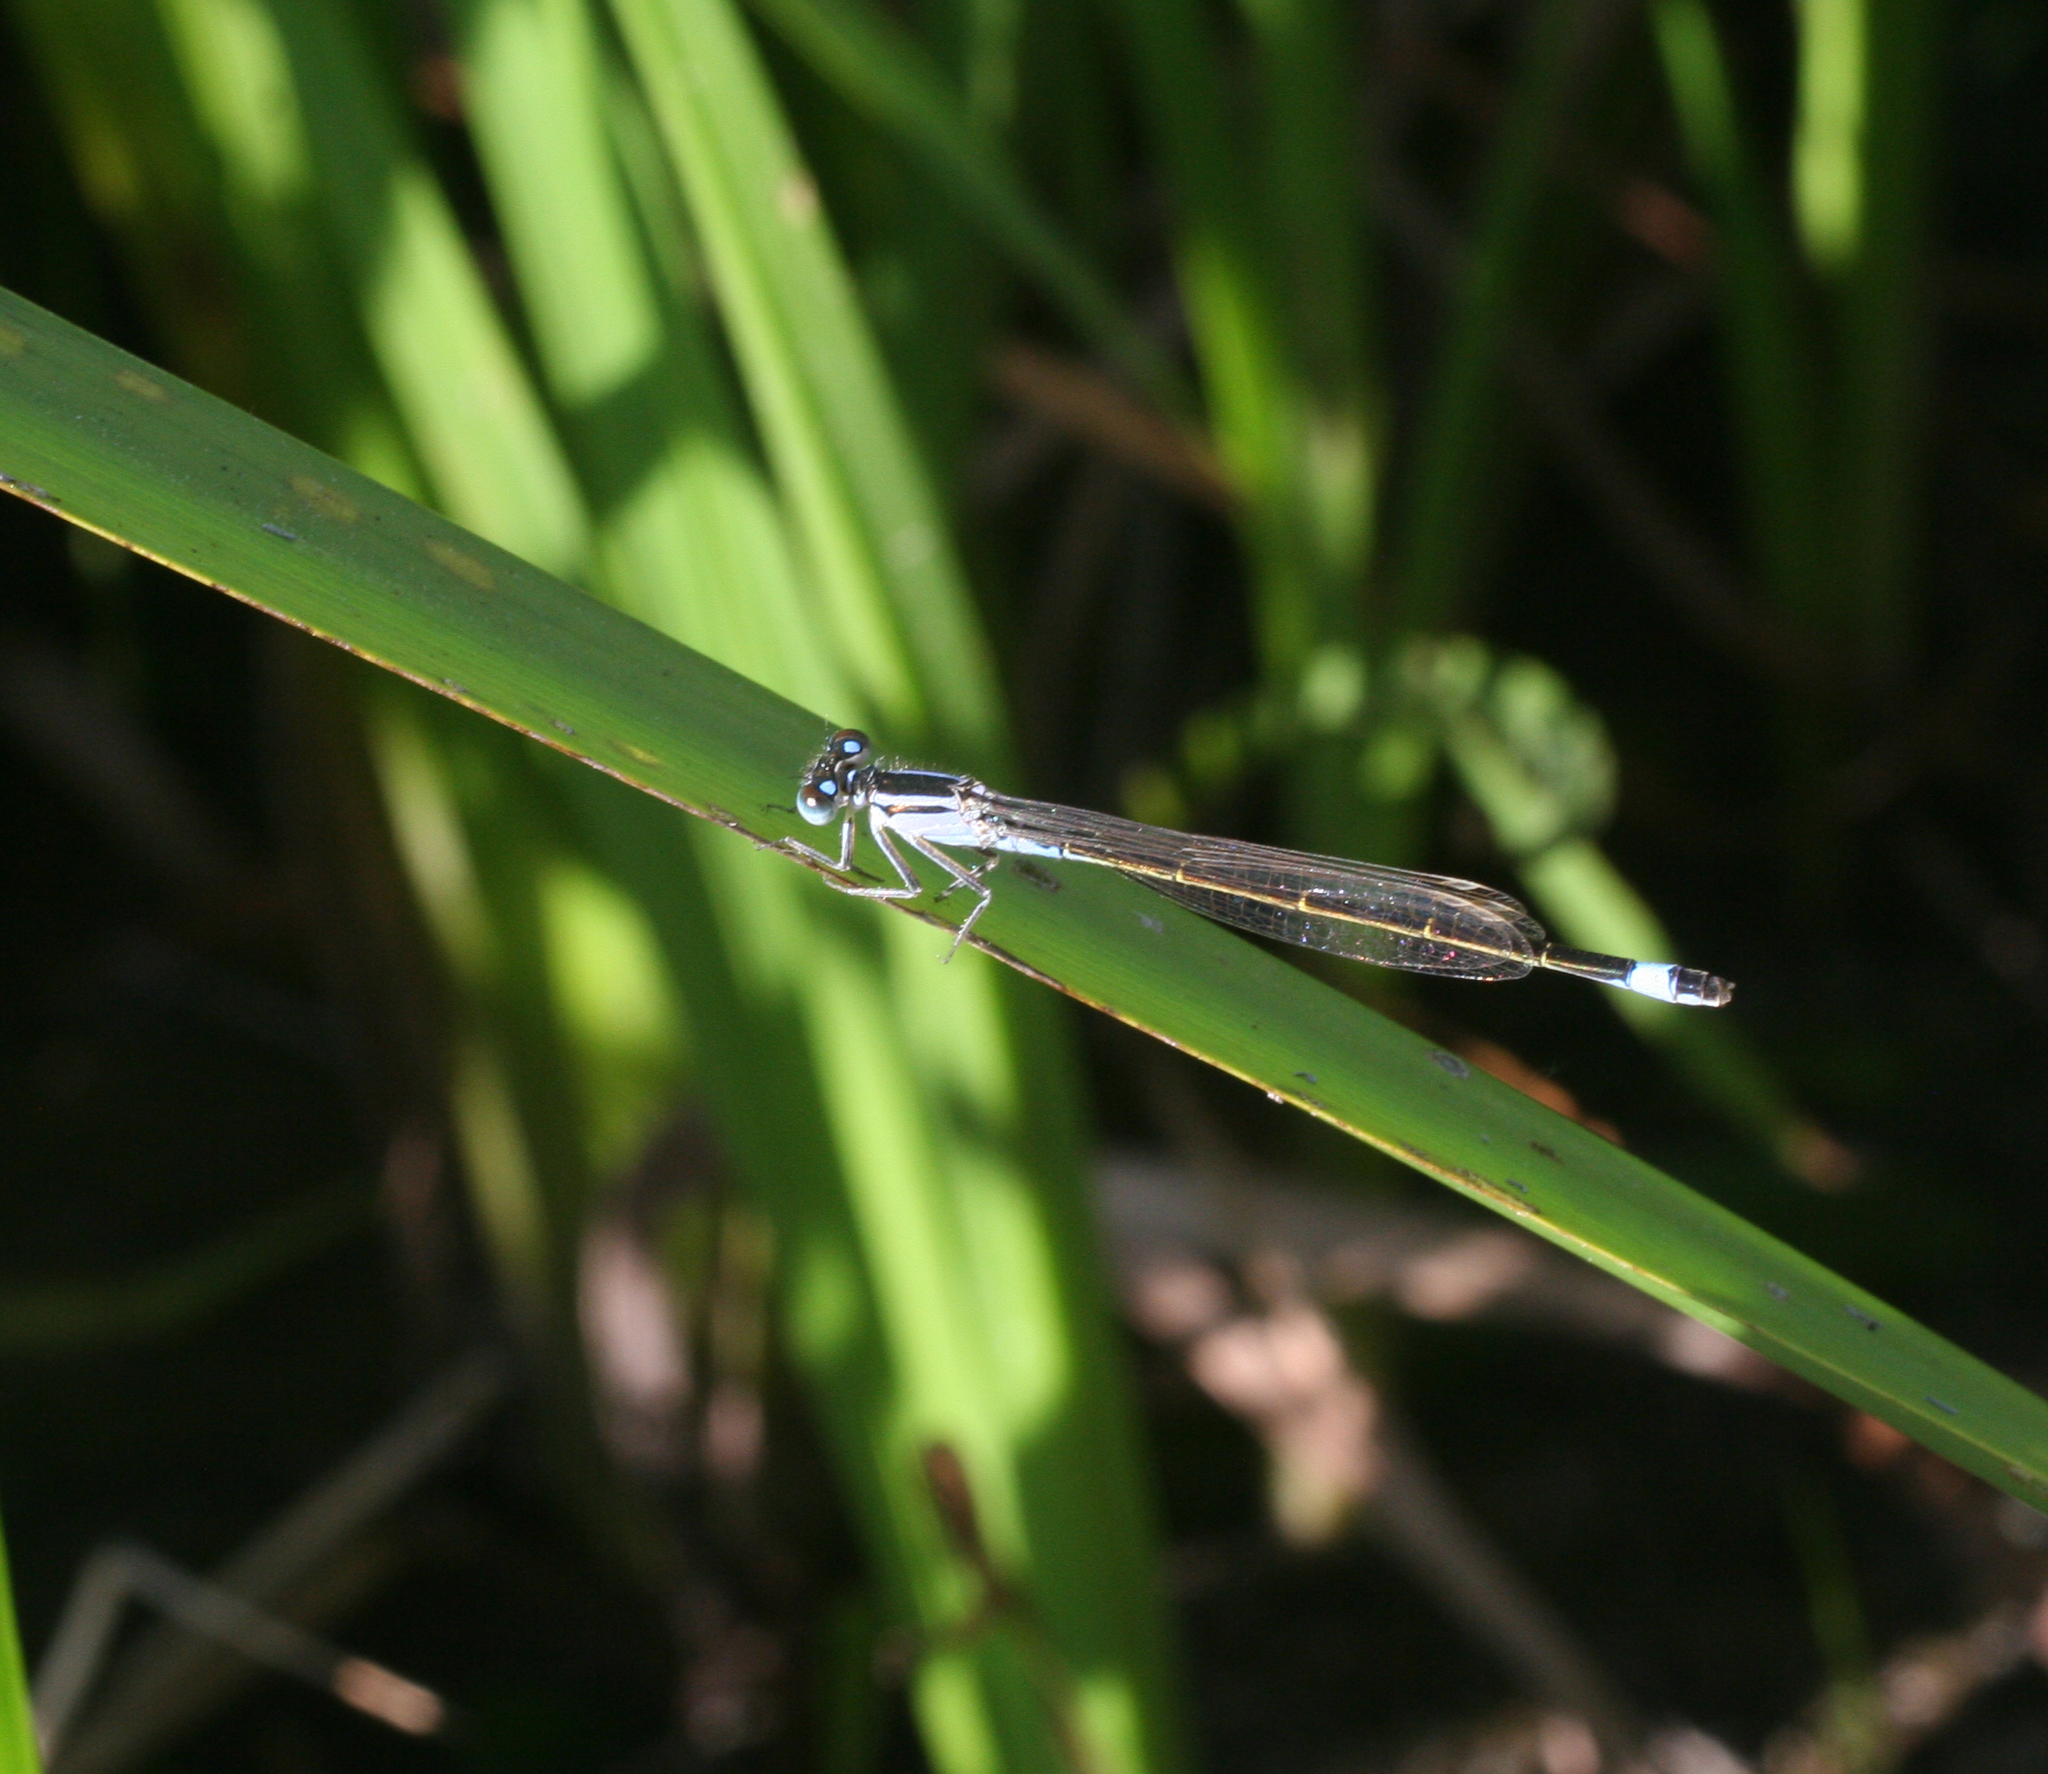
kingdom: Animalia
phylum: Arthropoda
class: Insecta
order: Odonata
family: Coenagrionidae
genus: Ischnura
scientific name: Ischnura elegans
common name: Blue-tailed damselfly
